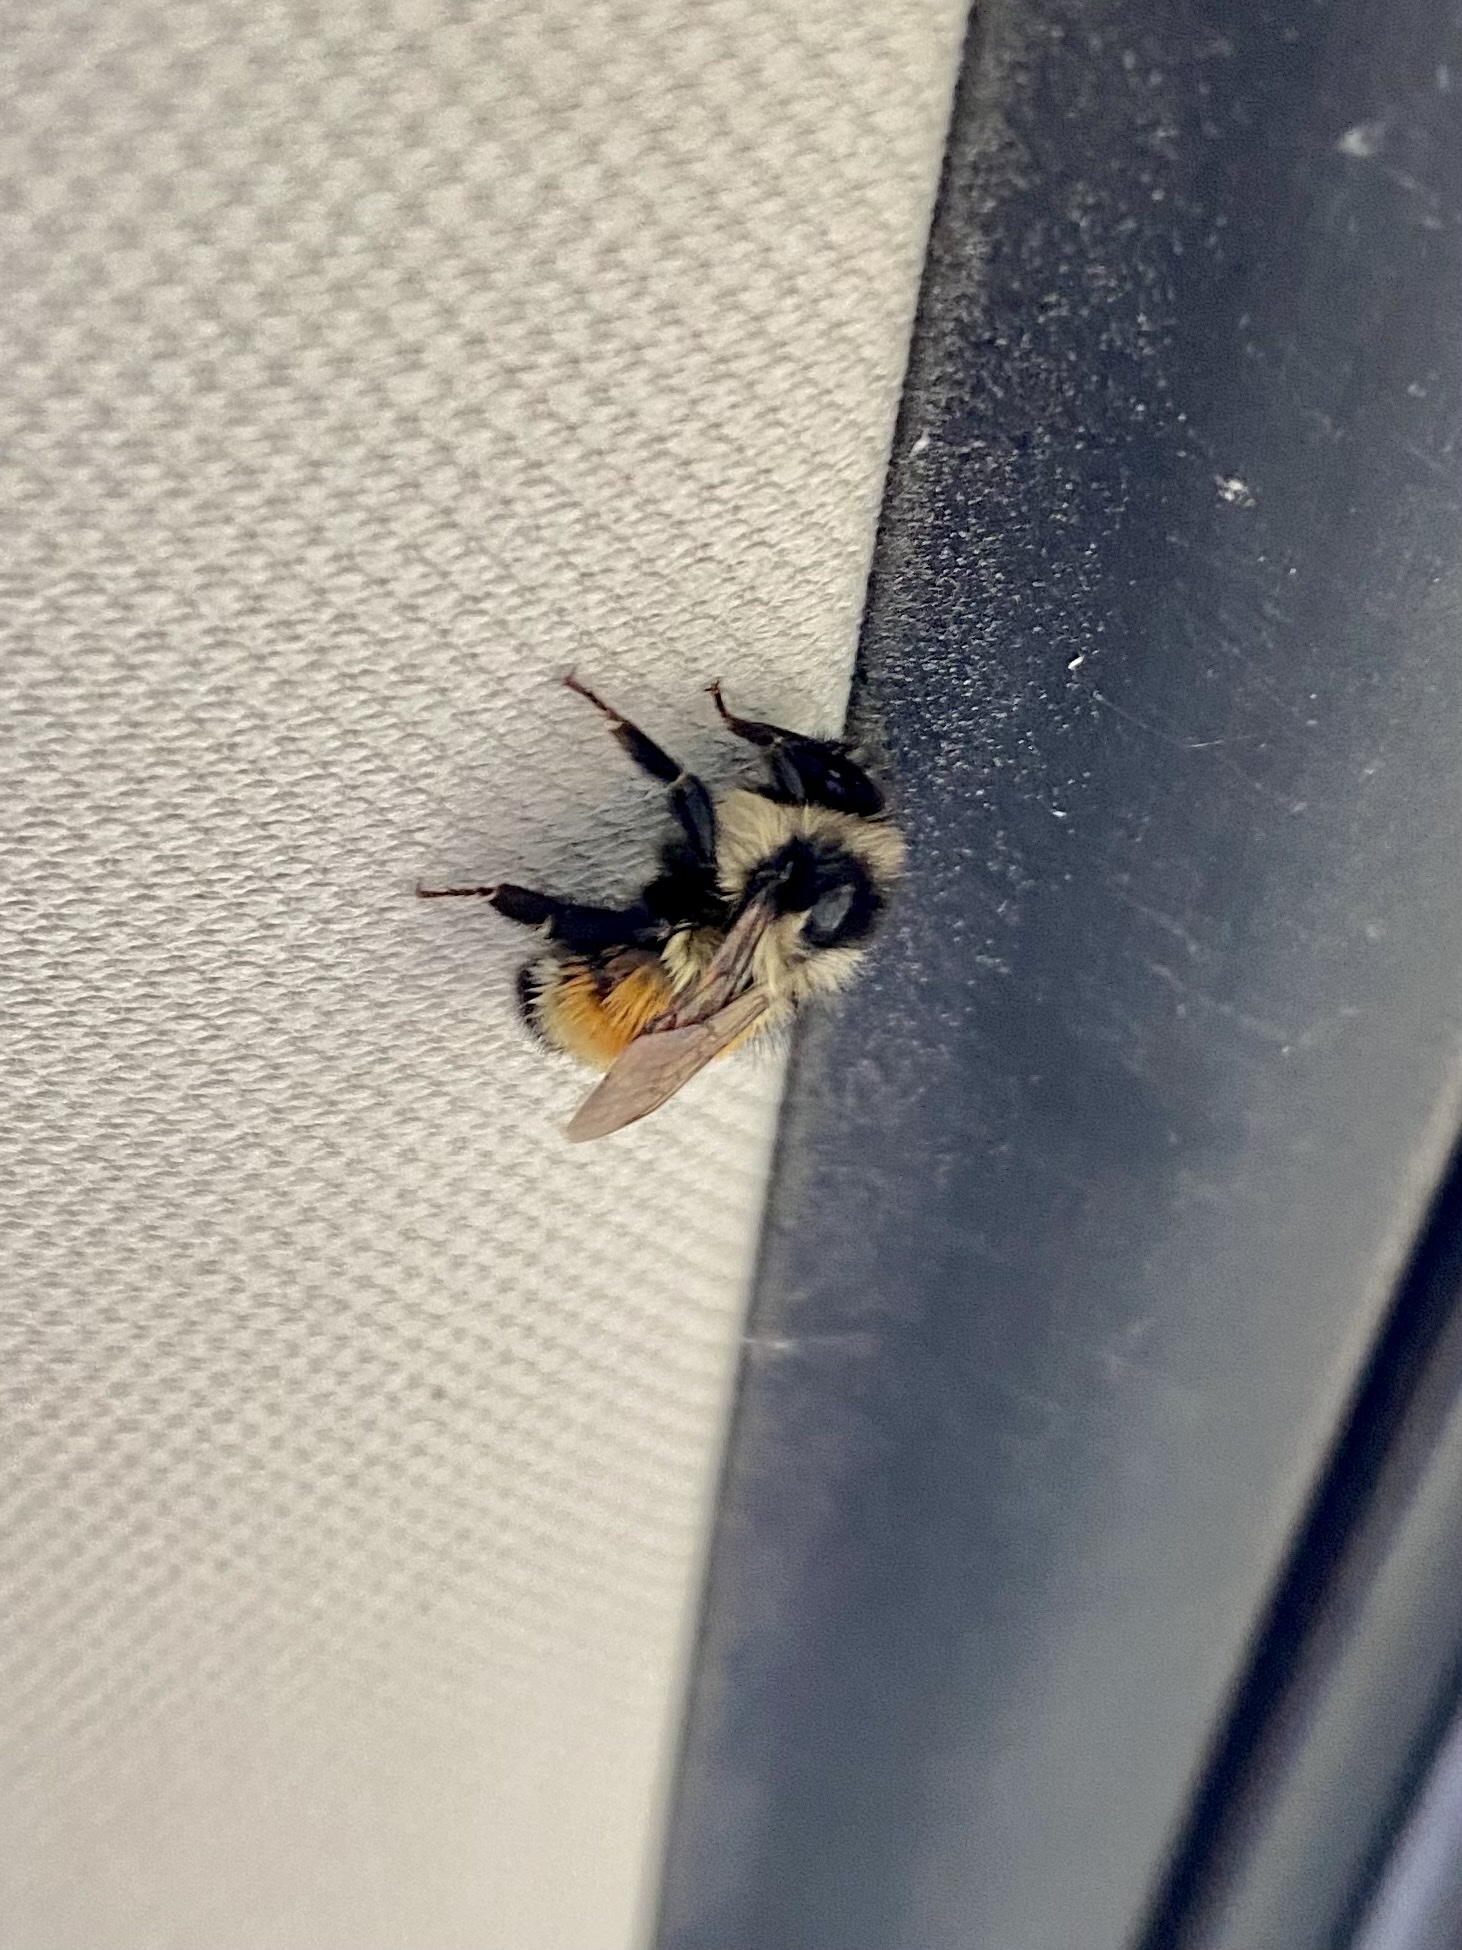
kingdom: Animalia
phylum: Arthropoda
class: Insecta
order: Hymenoptera
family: Apidae
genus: Bombus
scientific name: Bombus ternarius
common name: Tri-colored bumble bee
